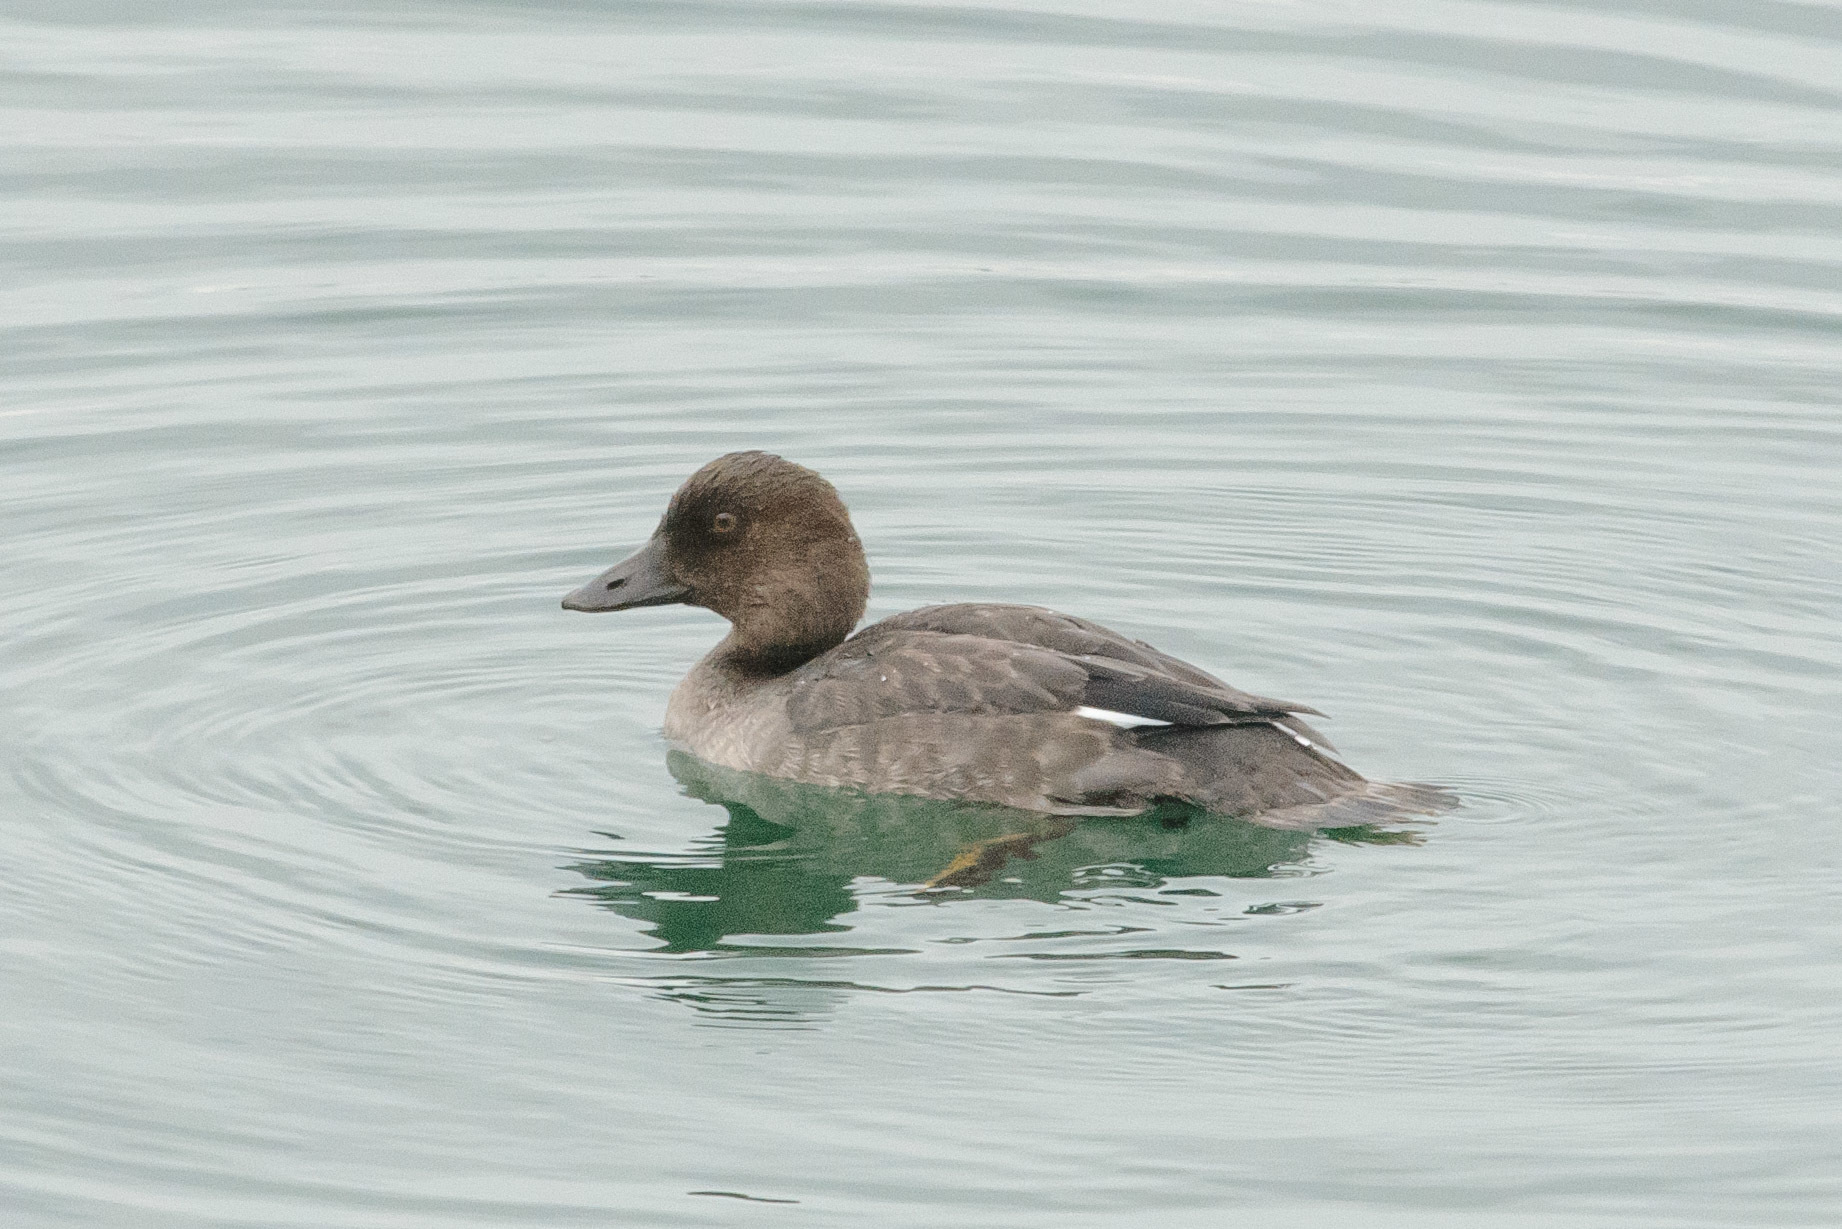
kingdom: Animalia
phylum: Chordata
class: Aves
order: Anseriformes
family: Anatidae
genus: Bucephala
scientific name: Bucephala clangula
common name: Common goldeneye
